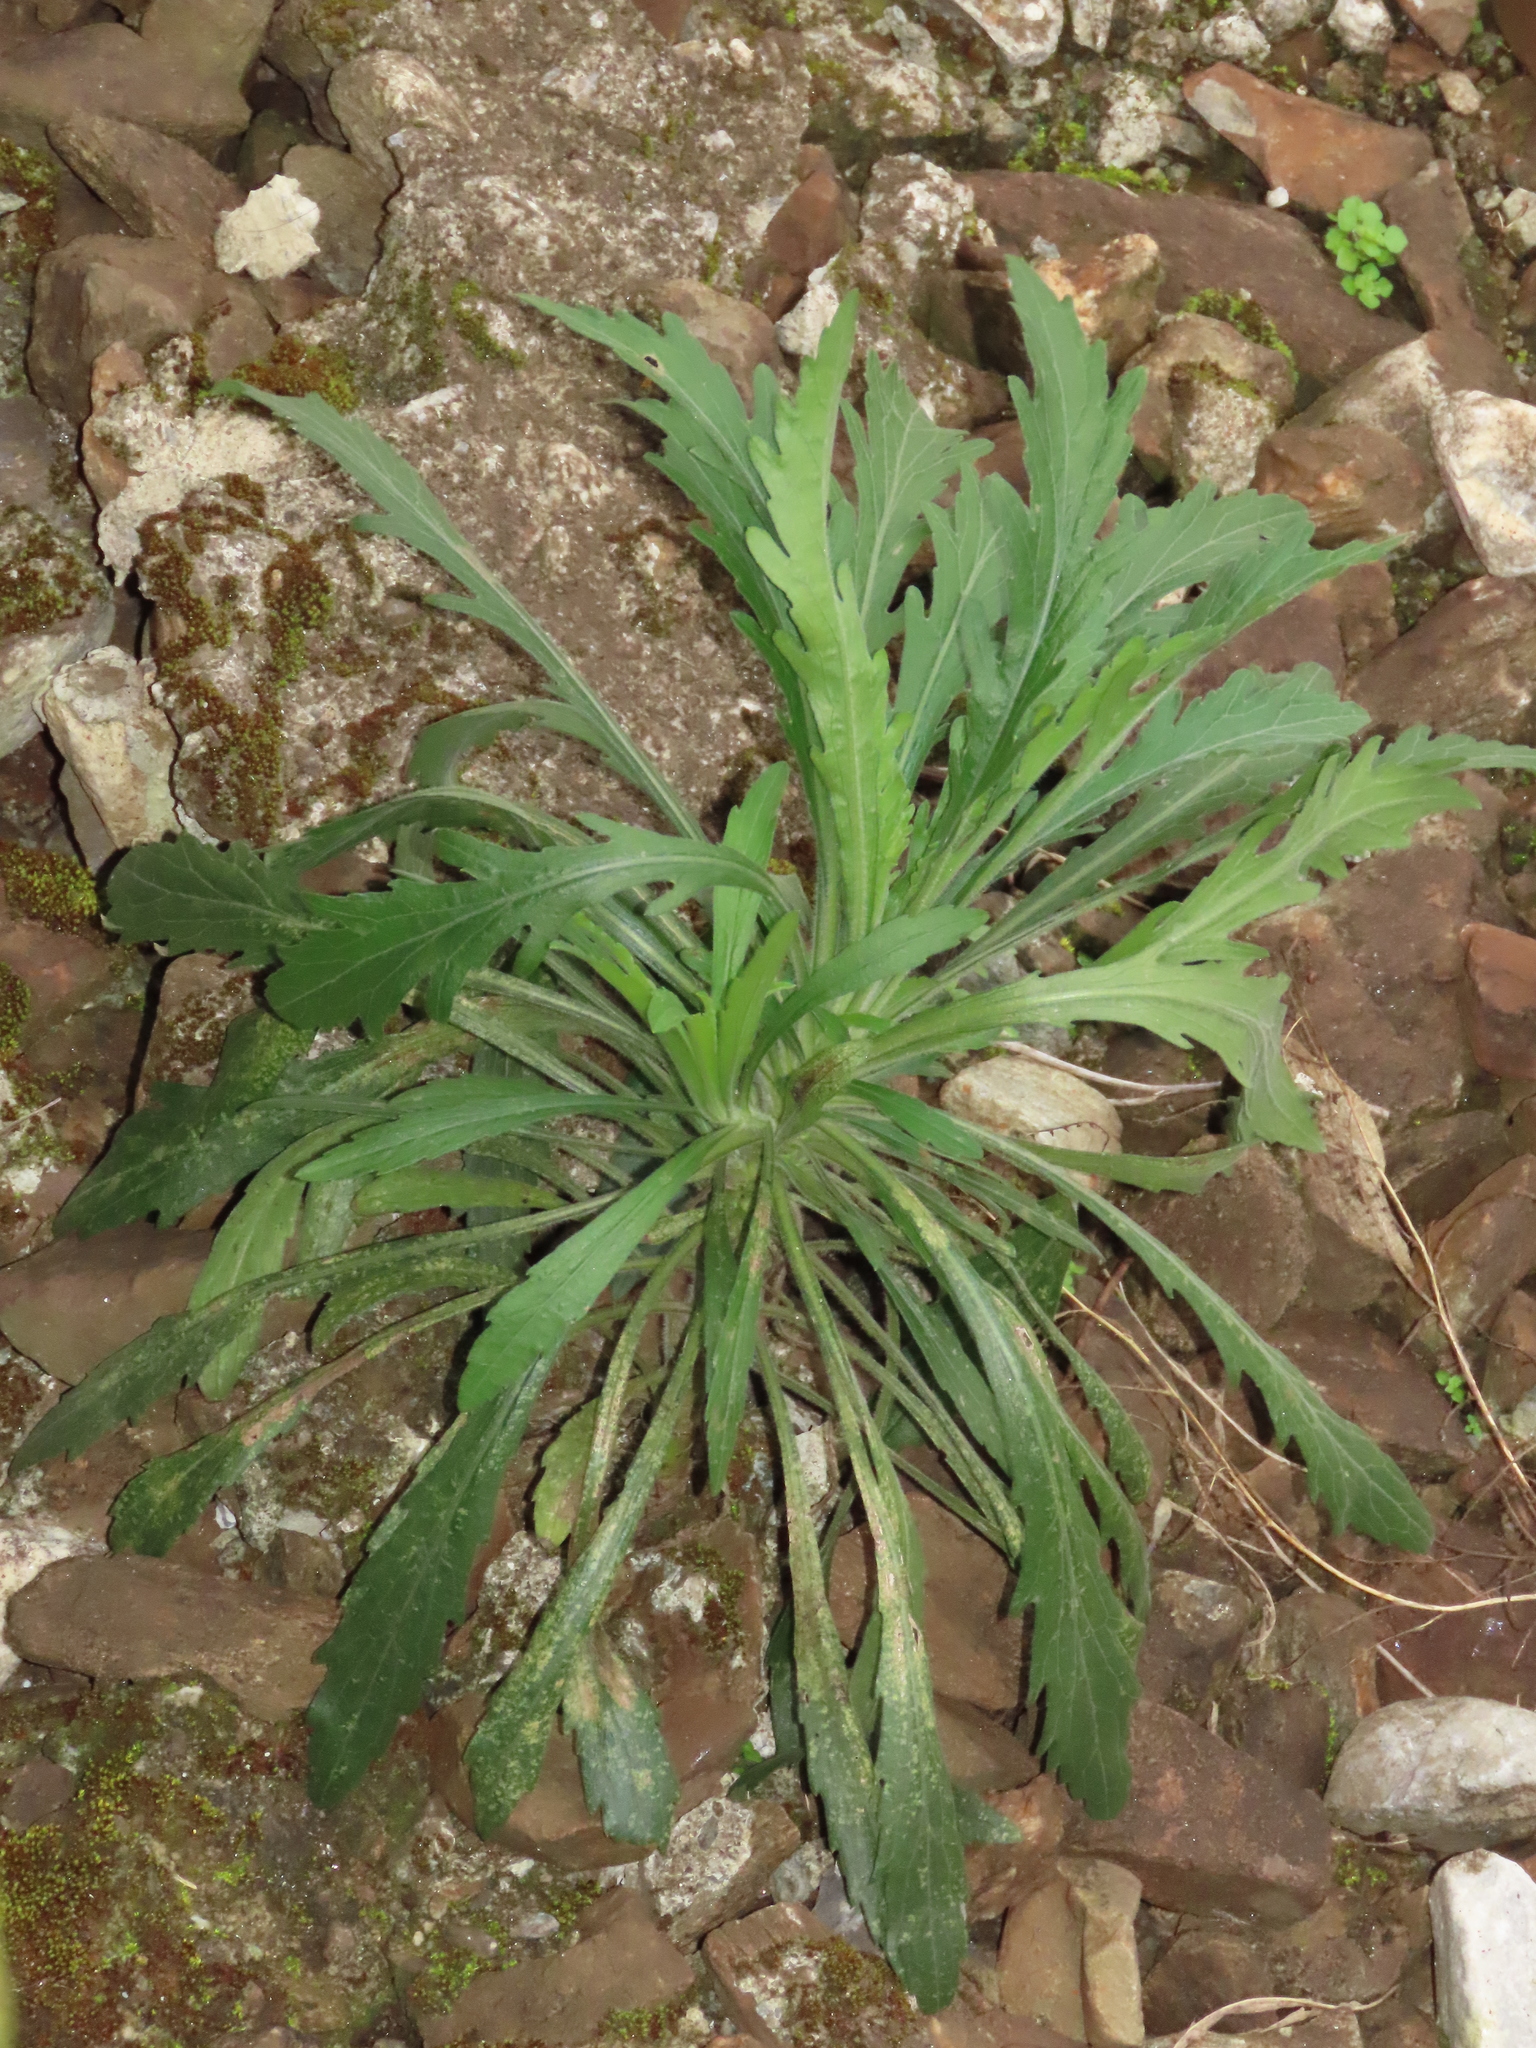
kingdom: Plantae
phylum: Tracheophyta
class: Magnoliopsida
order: Asterales
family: Asteraceae
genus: Erigeron
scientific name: Erigeron sumatrensis
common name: Daisy
